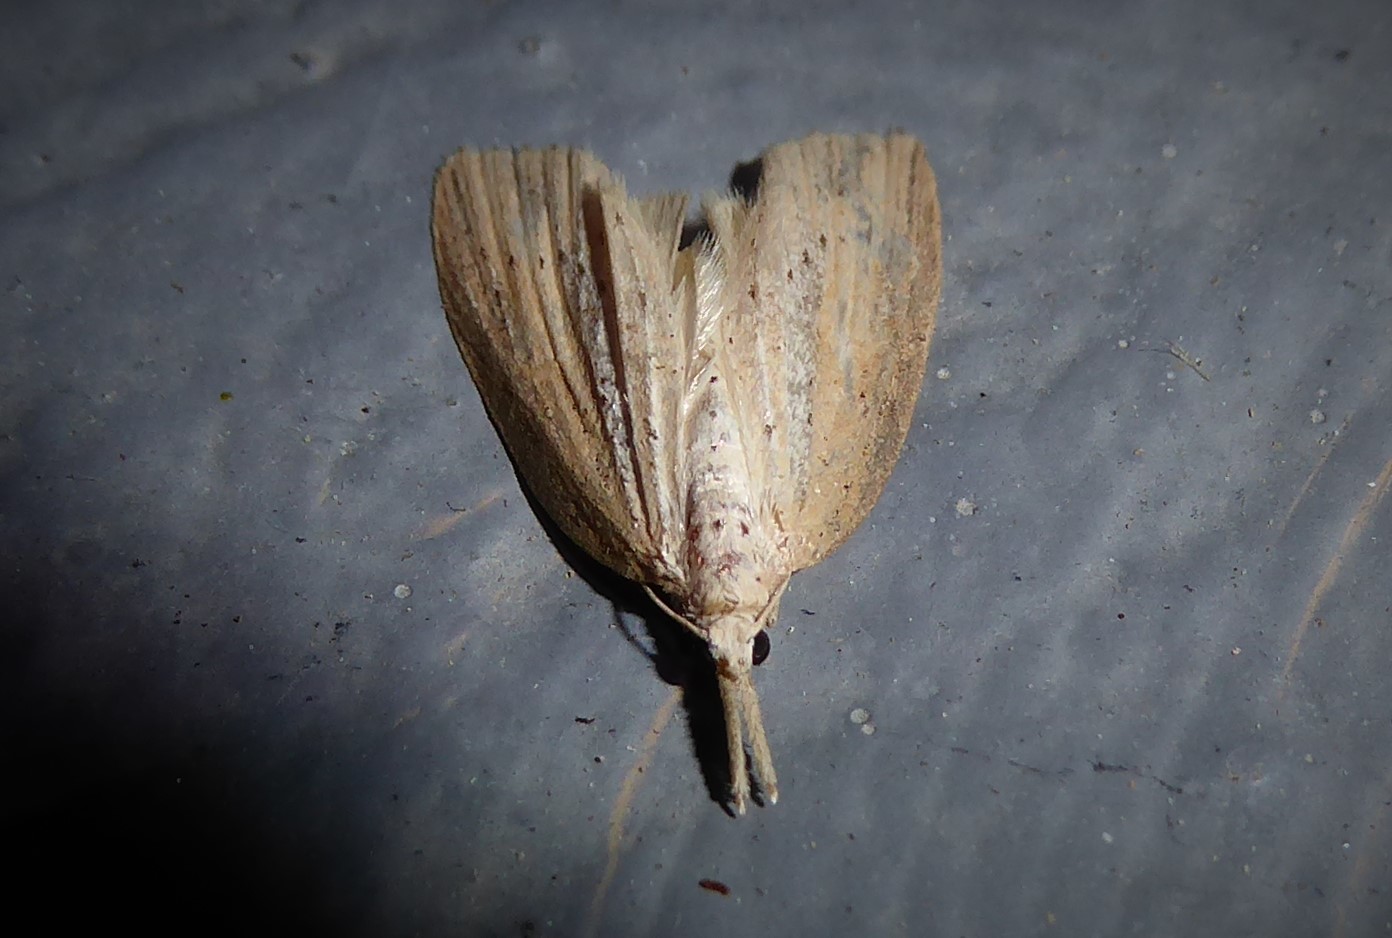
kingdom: Animalia
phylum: Arthropoda
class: Insecta
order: Lepidoptera
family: Geometridae
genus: Microdes
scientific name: Microdes epicryptis
